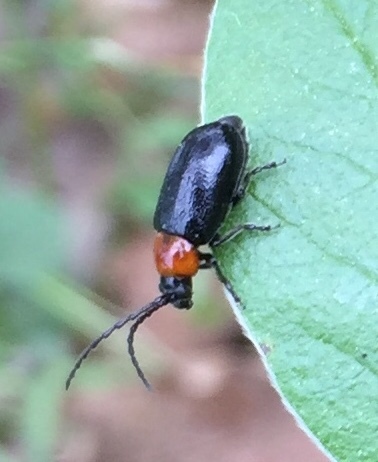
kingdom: Animalia
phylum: Arthropoda
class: Insecta
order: Coleoptera
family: Chrysomelidae
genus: Exosoma
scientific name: Exosoma gaudionis
